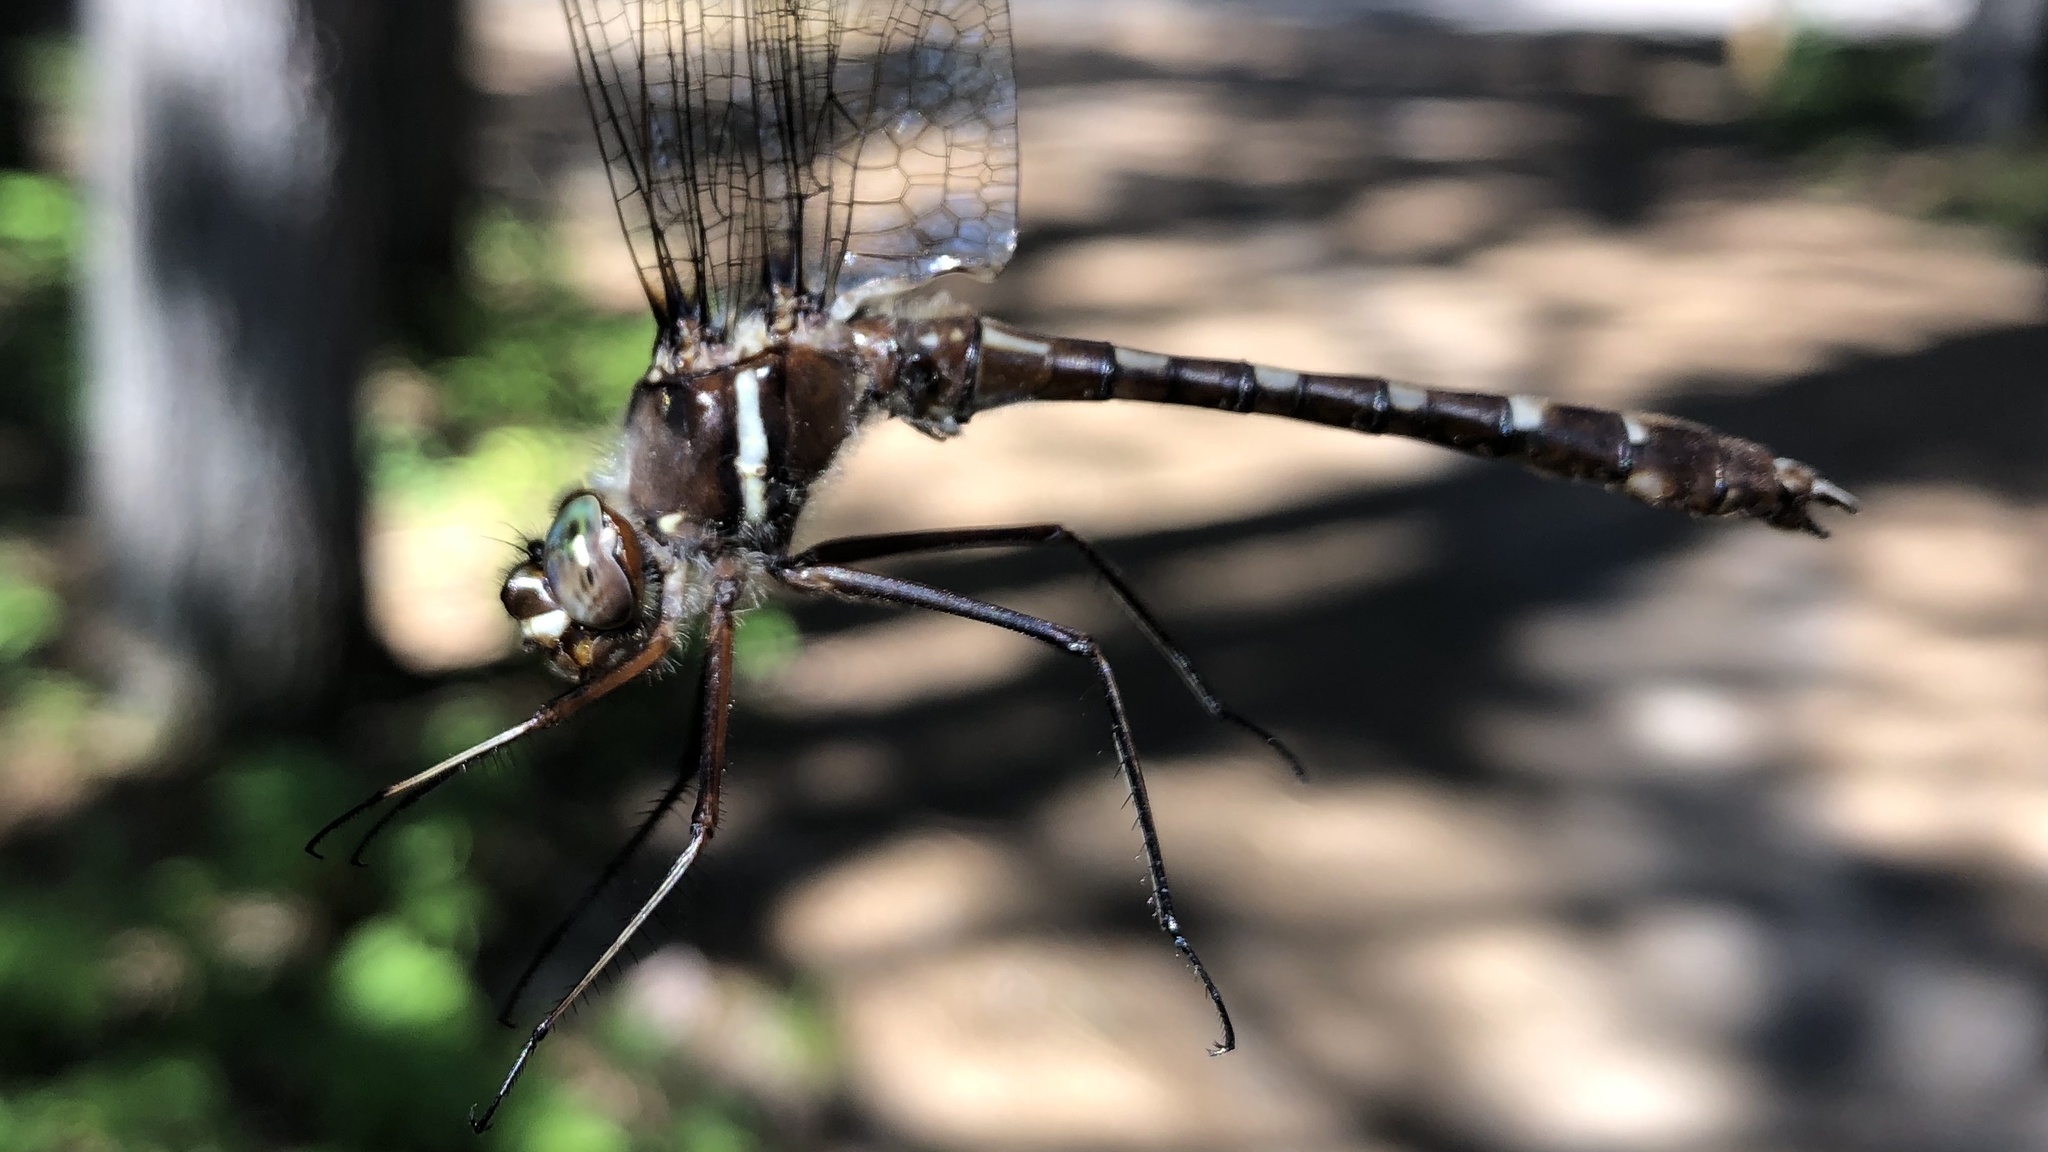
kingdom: Animalia
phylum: Arthropoda
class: Insecta
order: Odonata
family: Macromiidae
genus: Didymops
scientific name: Didymops transversa
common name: Stream cruiser
